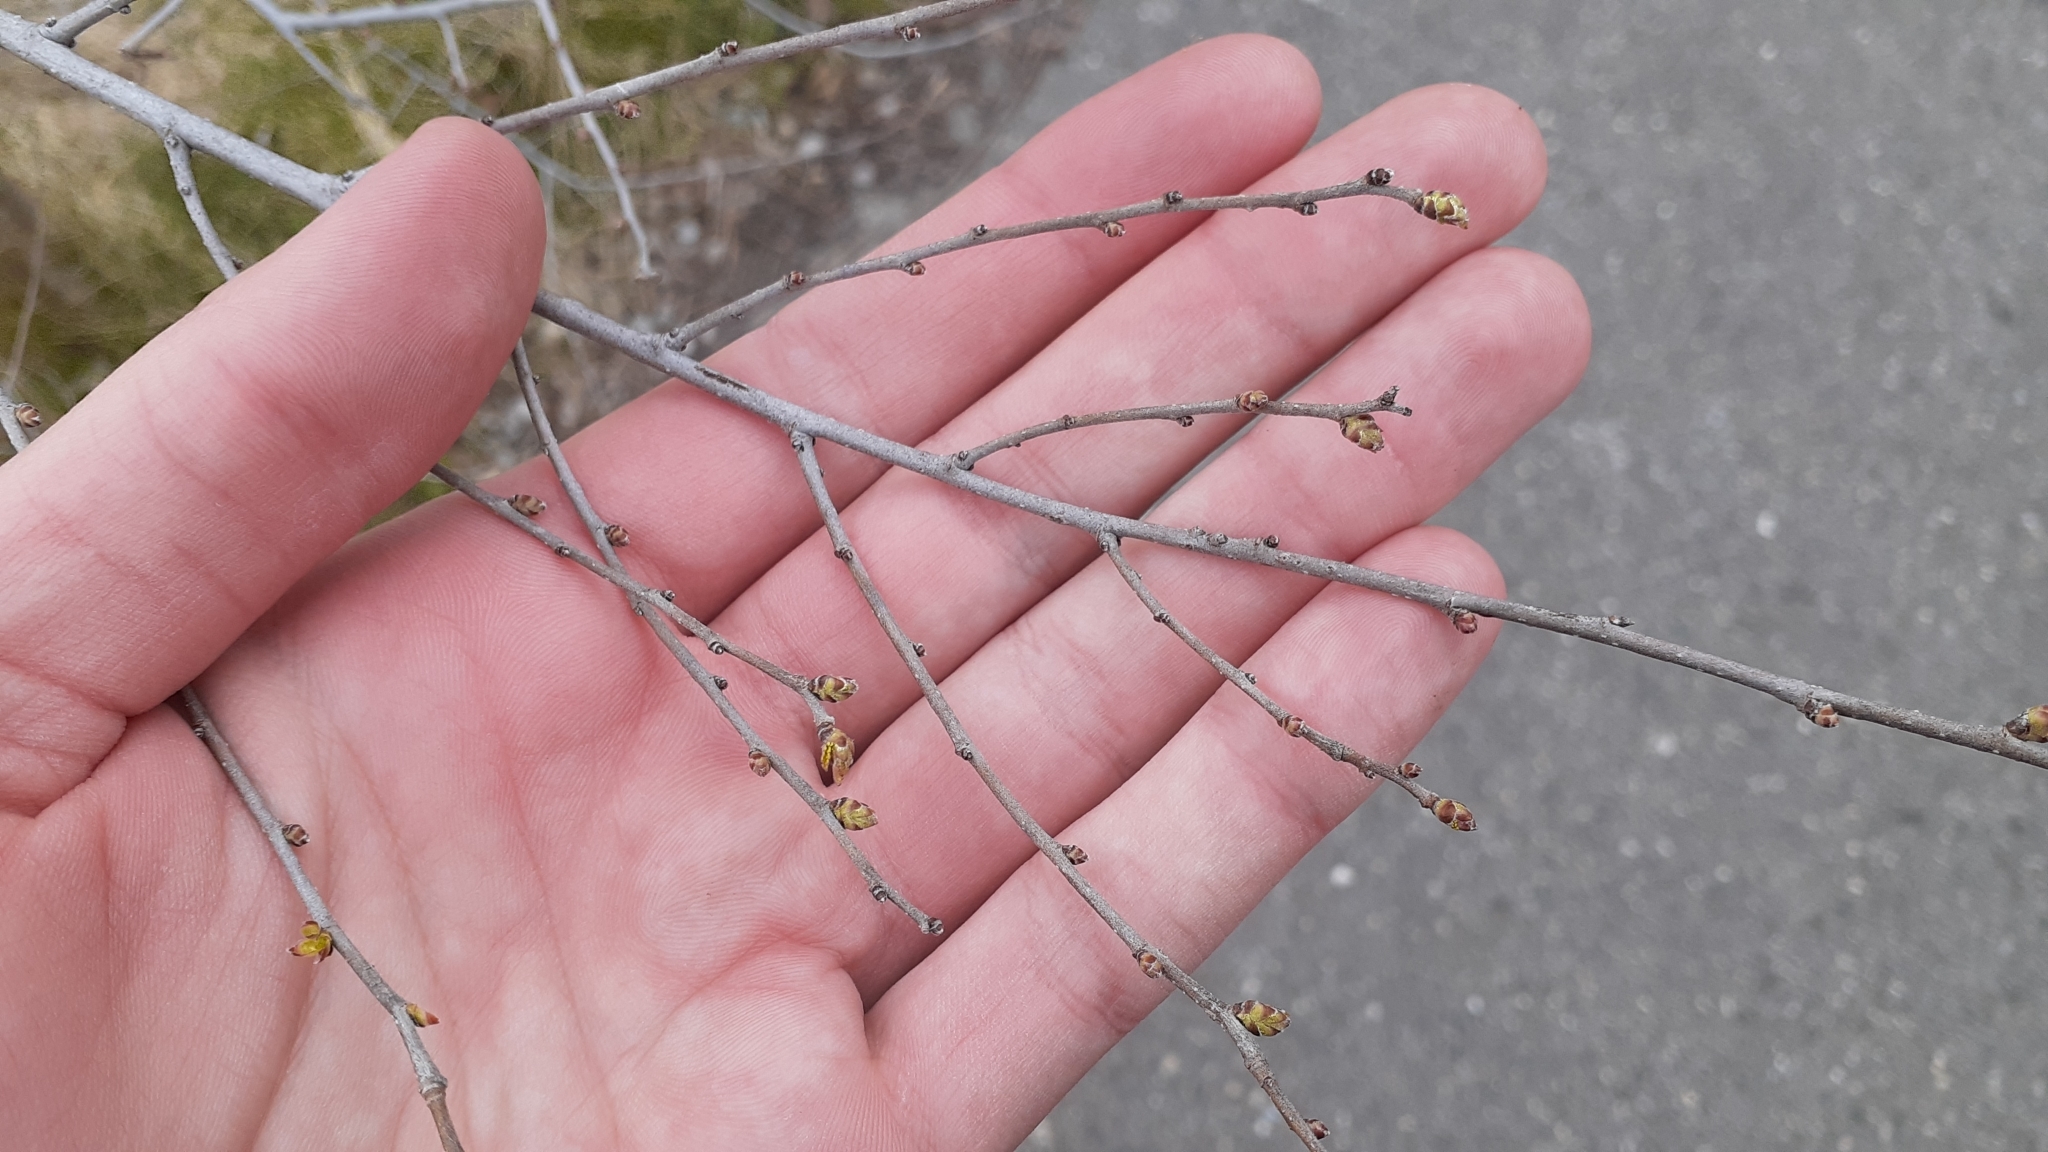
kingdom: Plantae
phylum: Tracheophyta
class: Magnoliopsida
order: Rosales
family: Ulmaceae
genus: Ulmus
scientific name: Ulmus pumila
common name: Siberian elm
